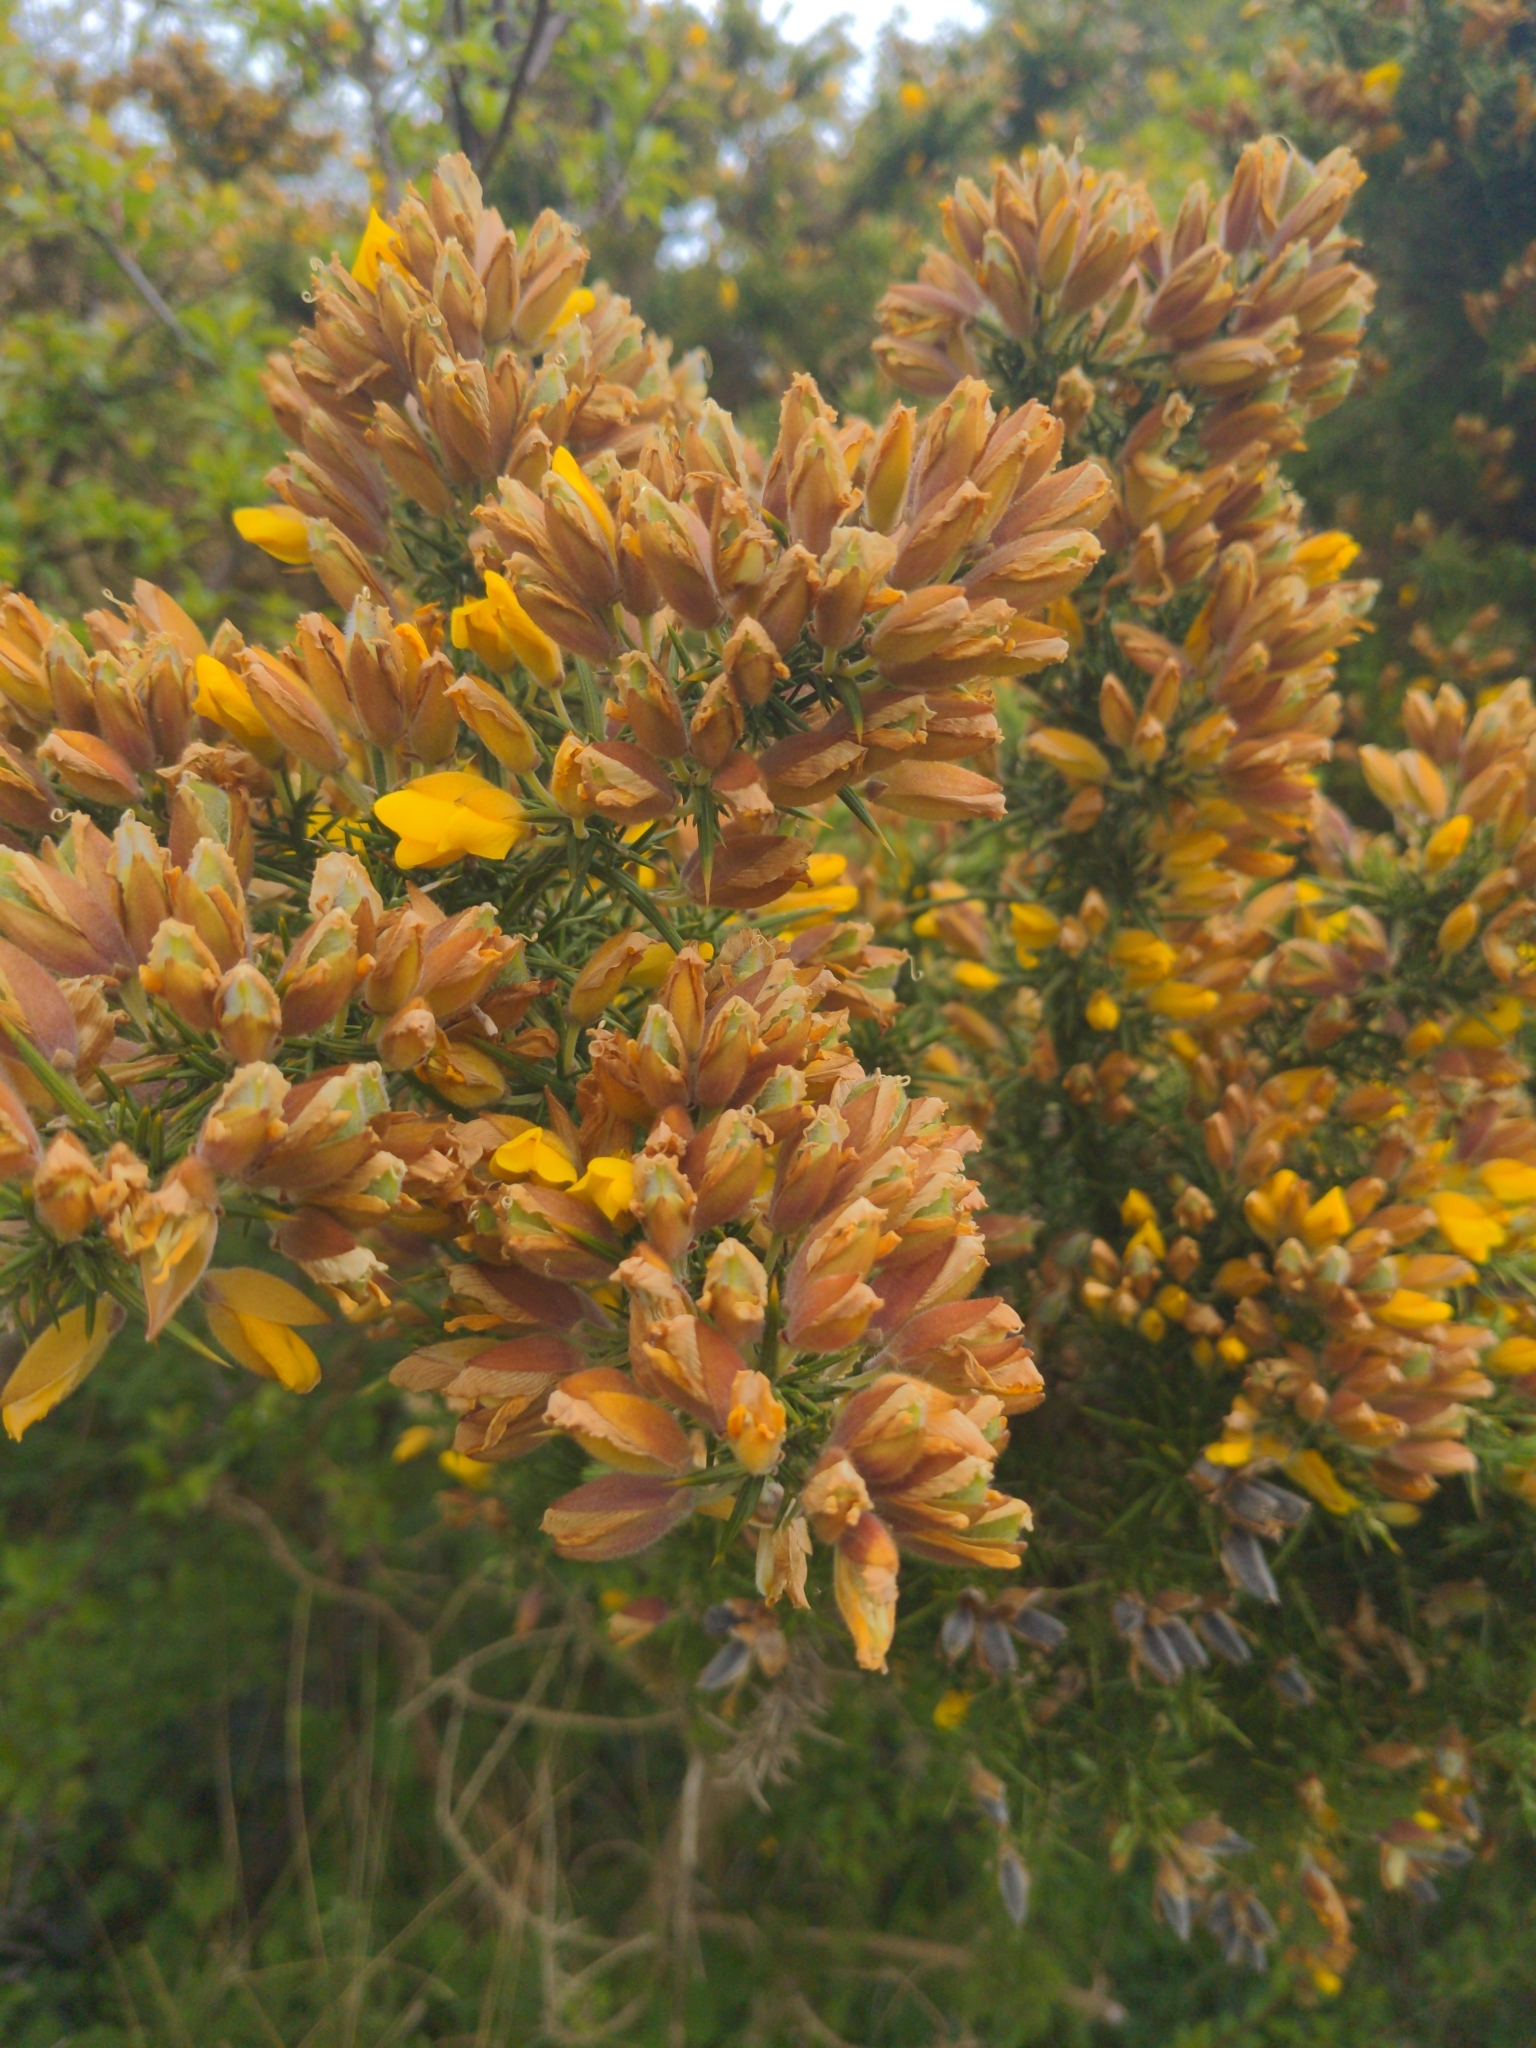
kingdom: Plantae
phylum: Tracheophyta
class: Magnoliopsida
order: Fabales
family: Fabaceae
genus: Ulex
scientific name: Ulex europaeus
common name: Common gorse
